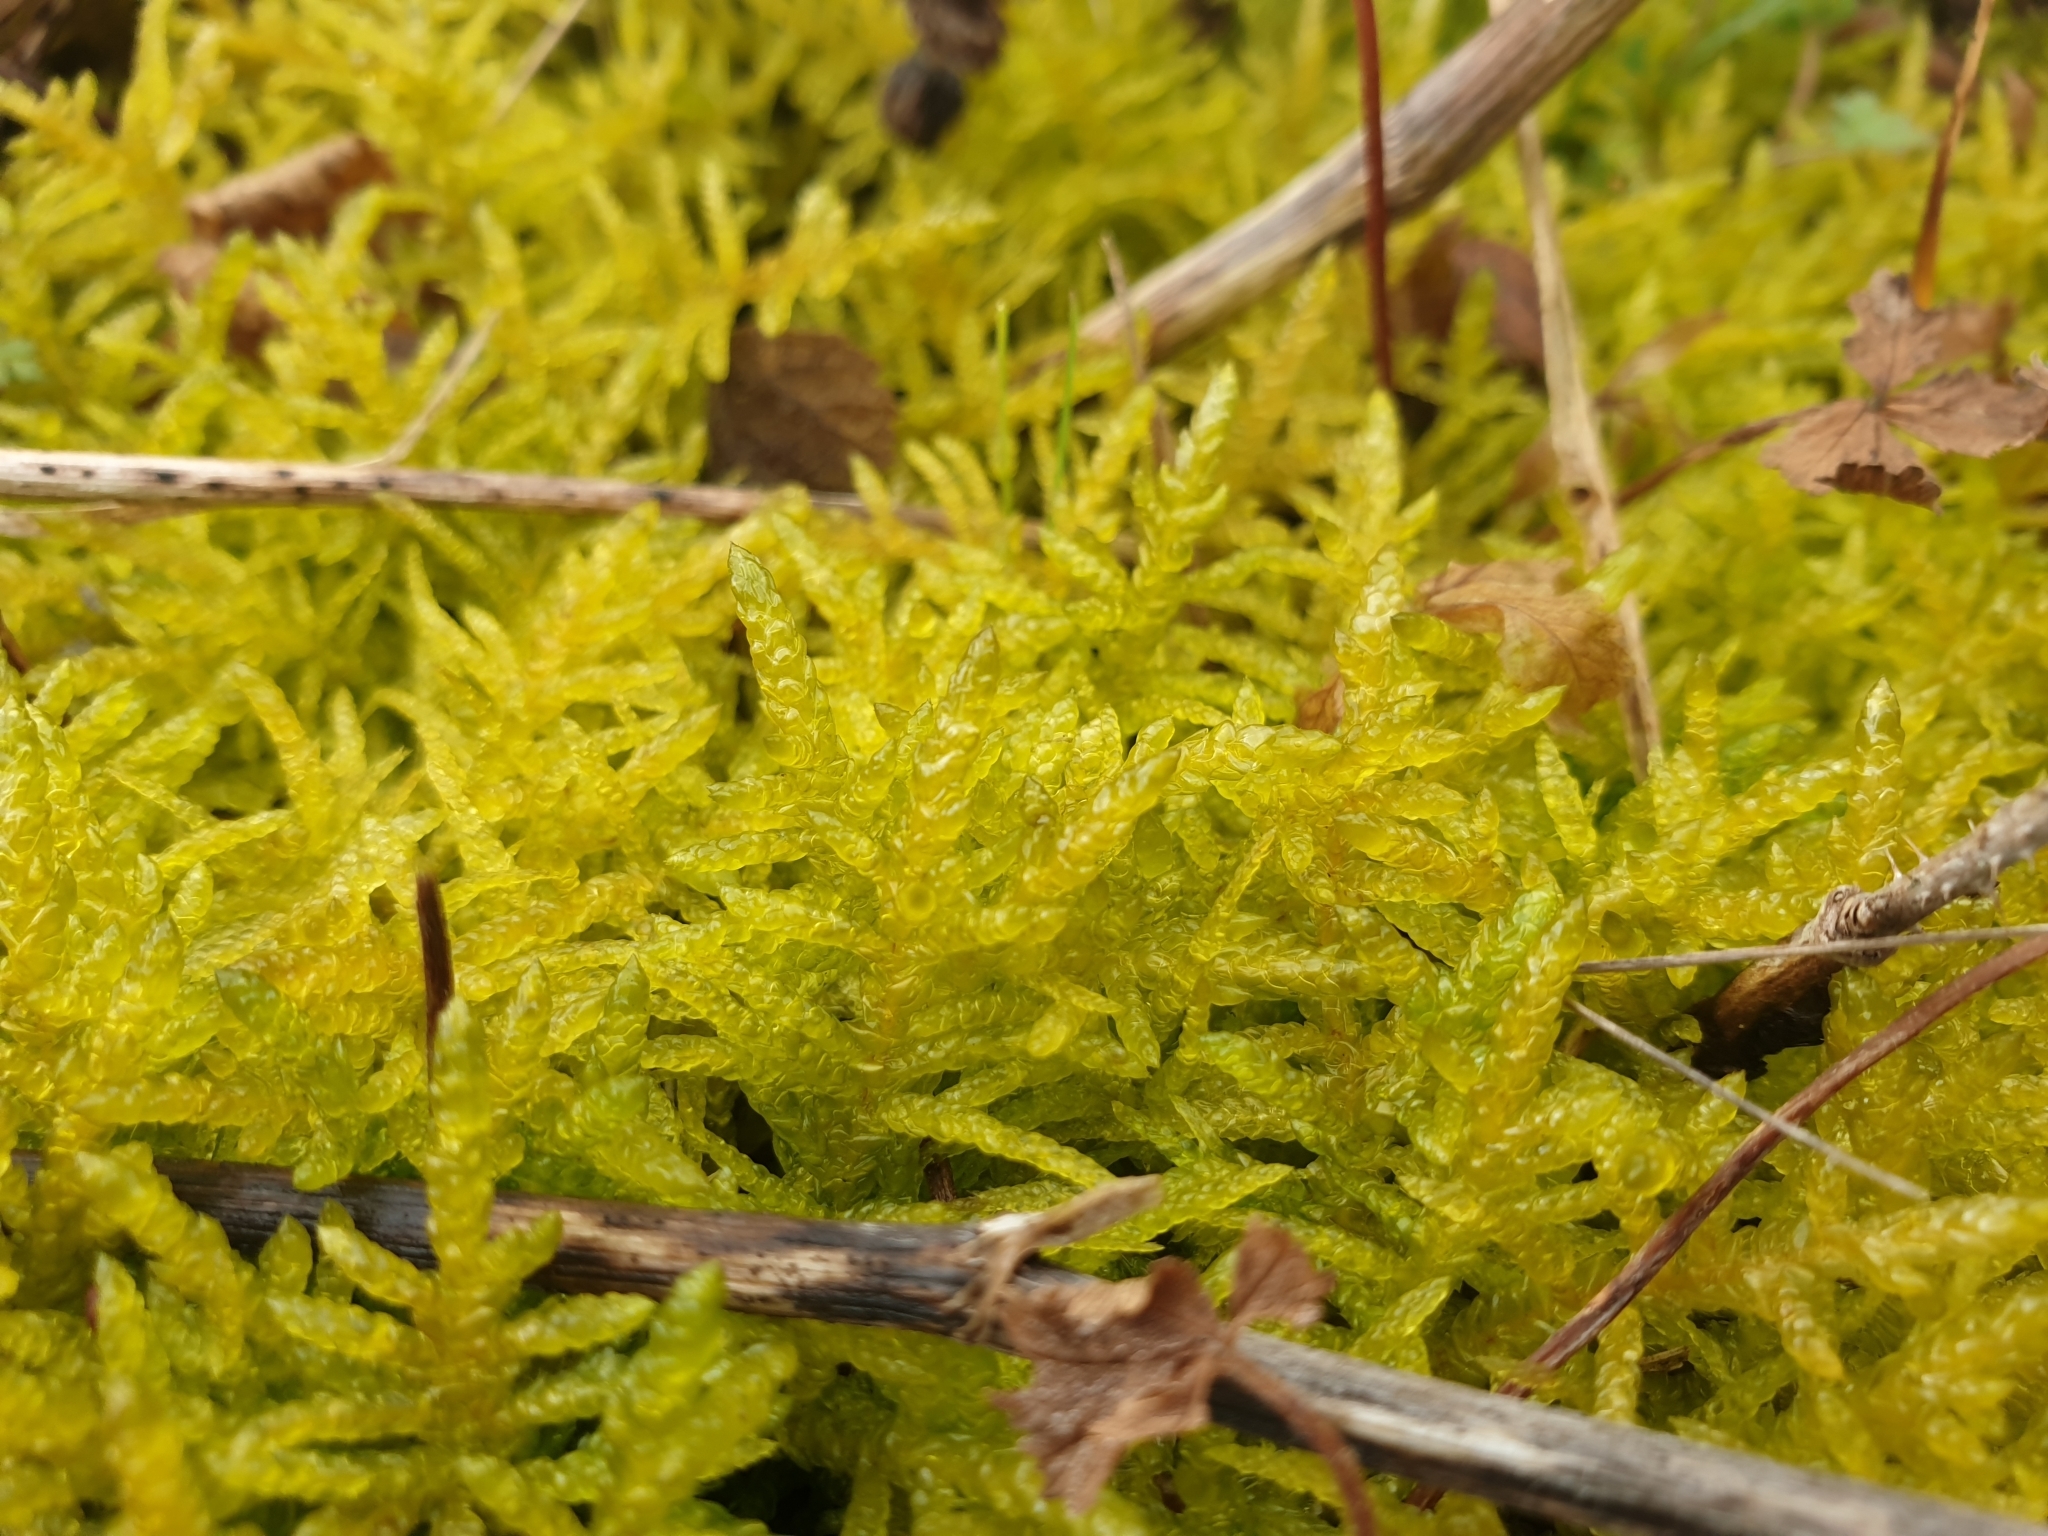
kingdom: Plantae
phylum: Bryophyta
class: Bryopsida
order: Hypnales
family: Brachytheciaceae
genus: Pseudoscleropodium
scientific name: Pseudoscleropodium purum
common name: Neat feather-moss
